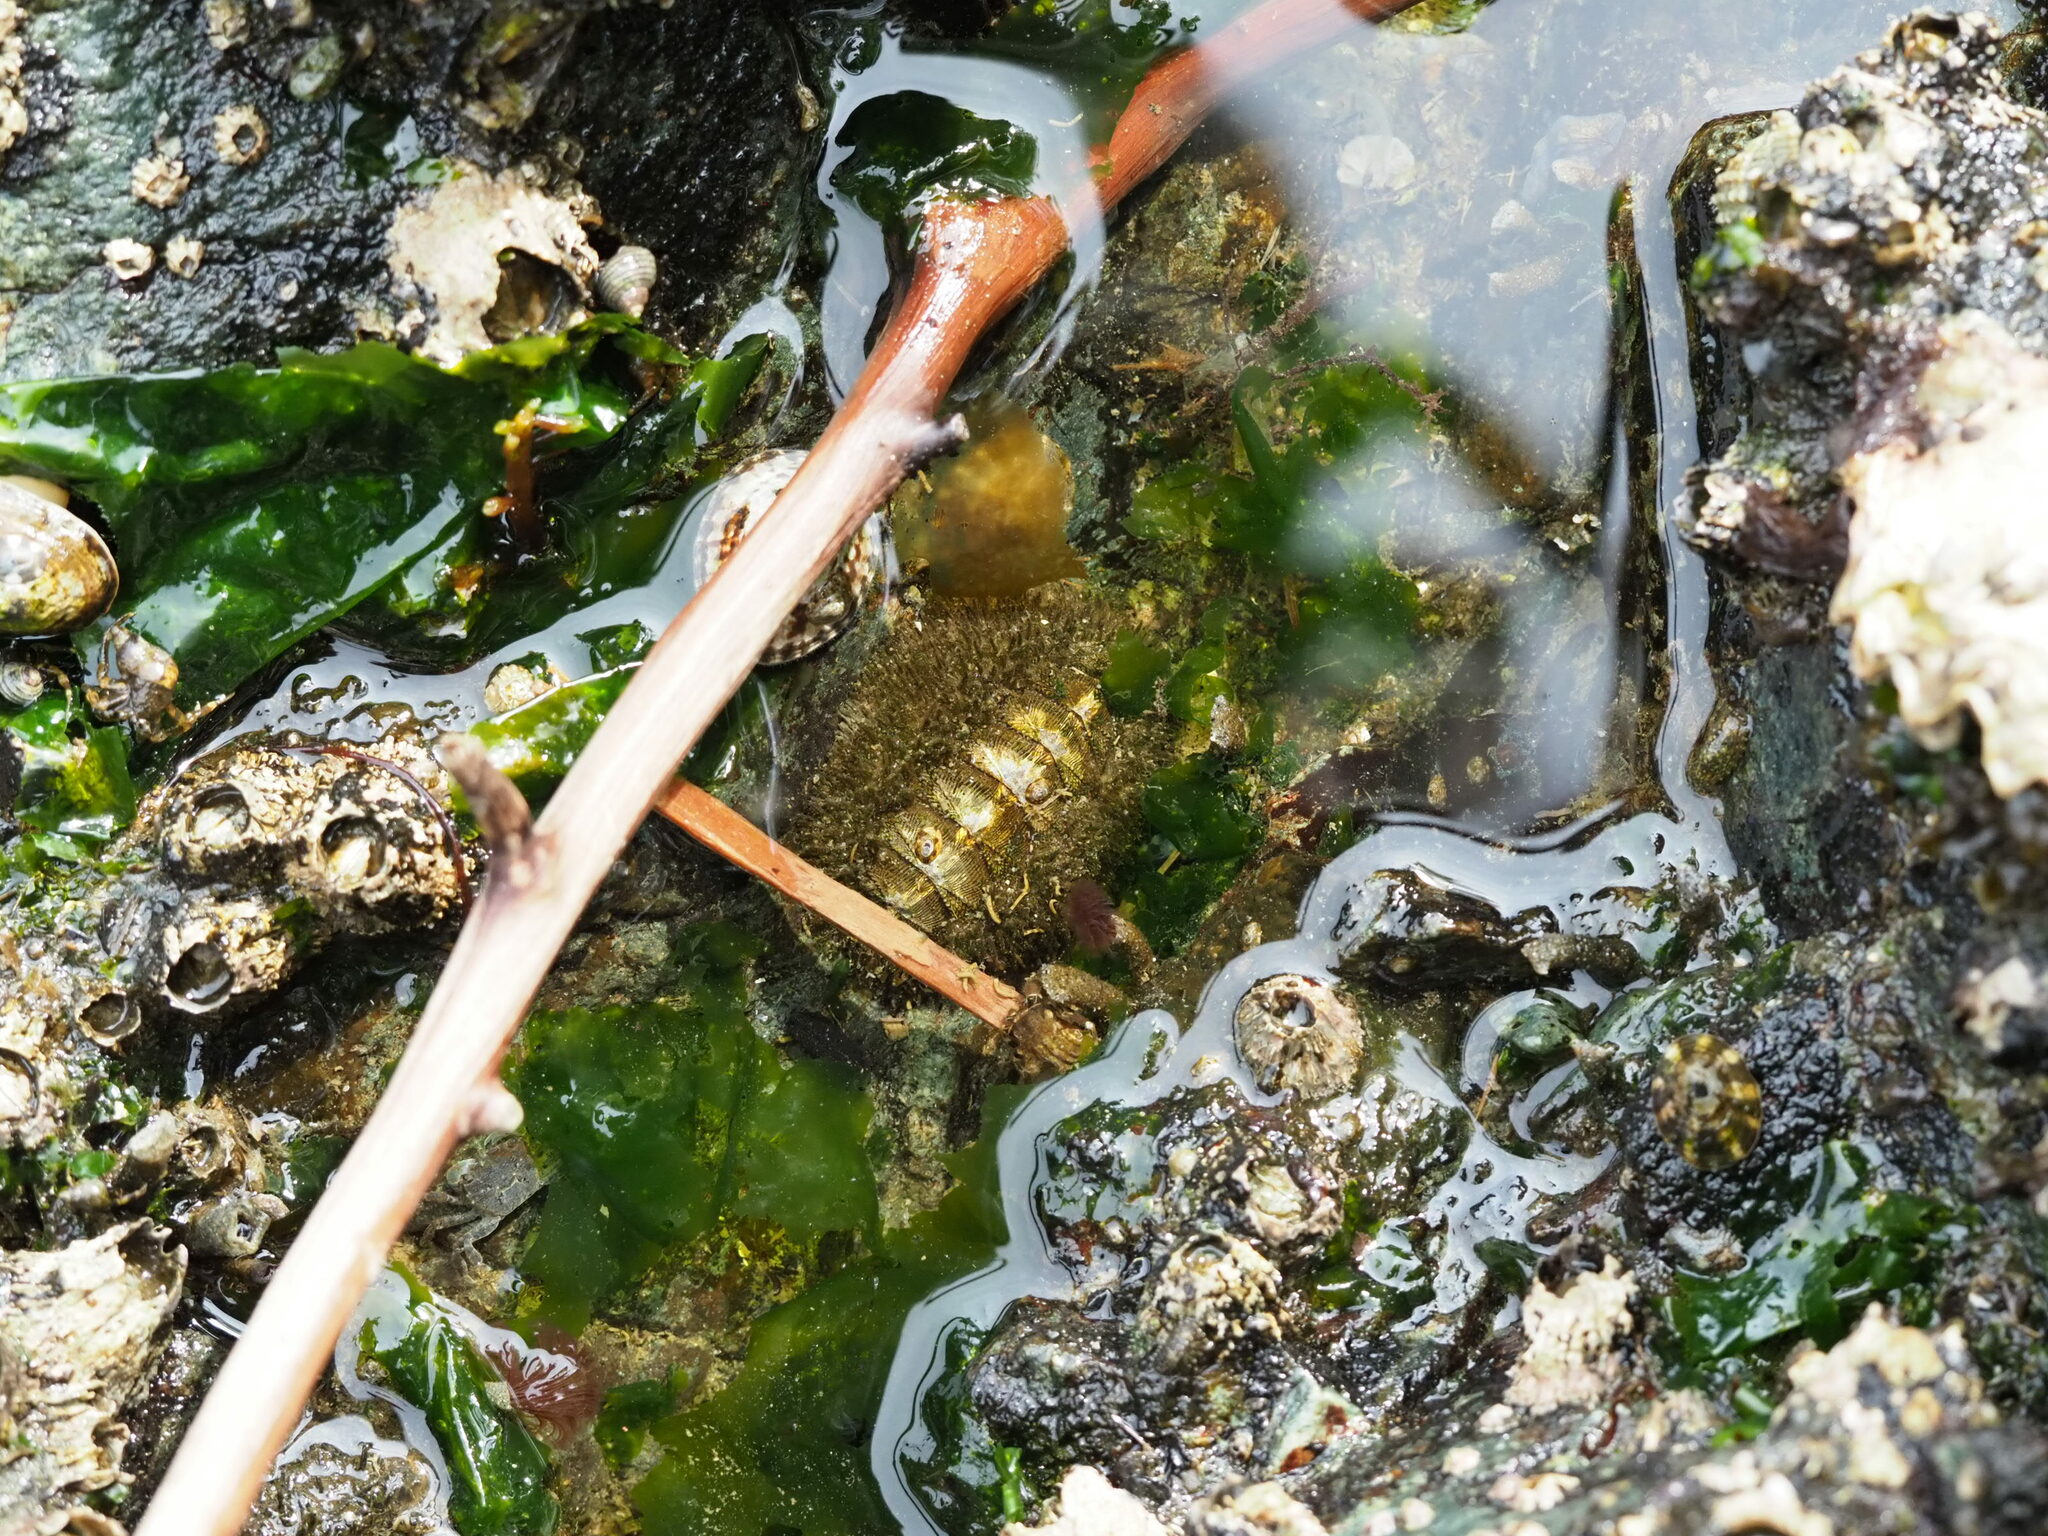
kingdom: Animalia
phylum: Mollusca
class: Polyplacophora
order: Chitonida
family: Mopaliidae
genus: Mopalia
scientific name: Mopalia muscosa
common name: Mossy chiton
